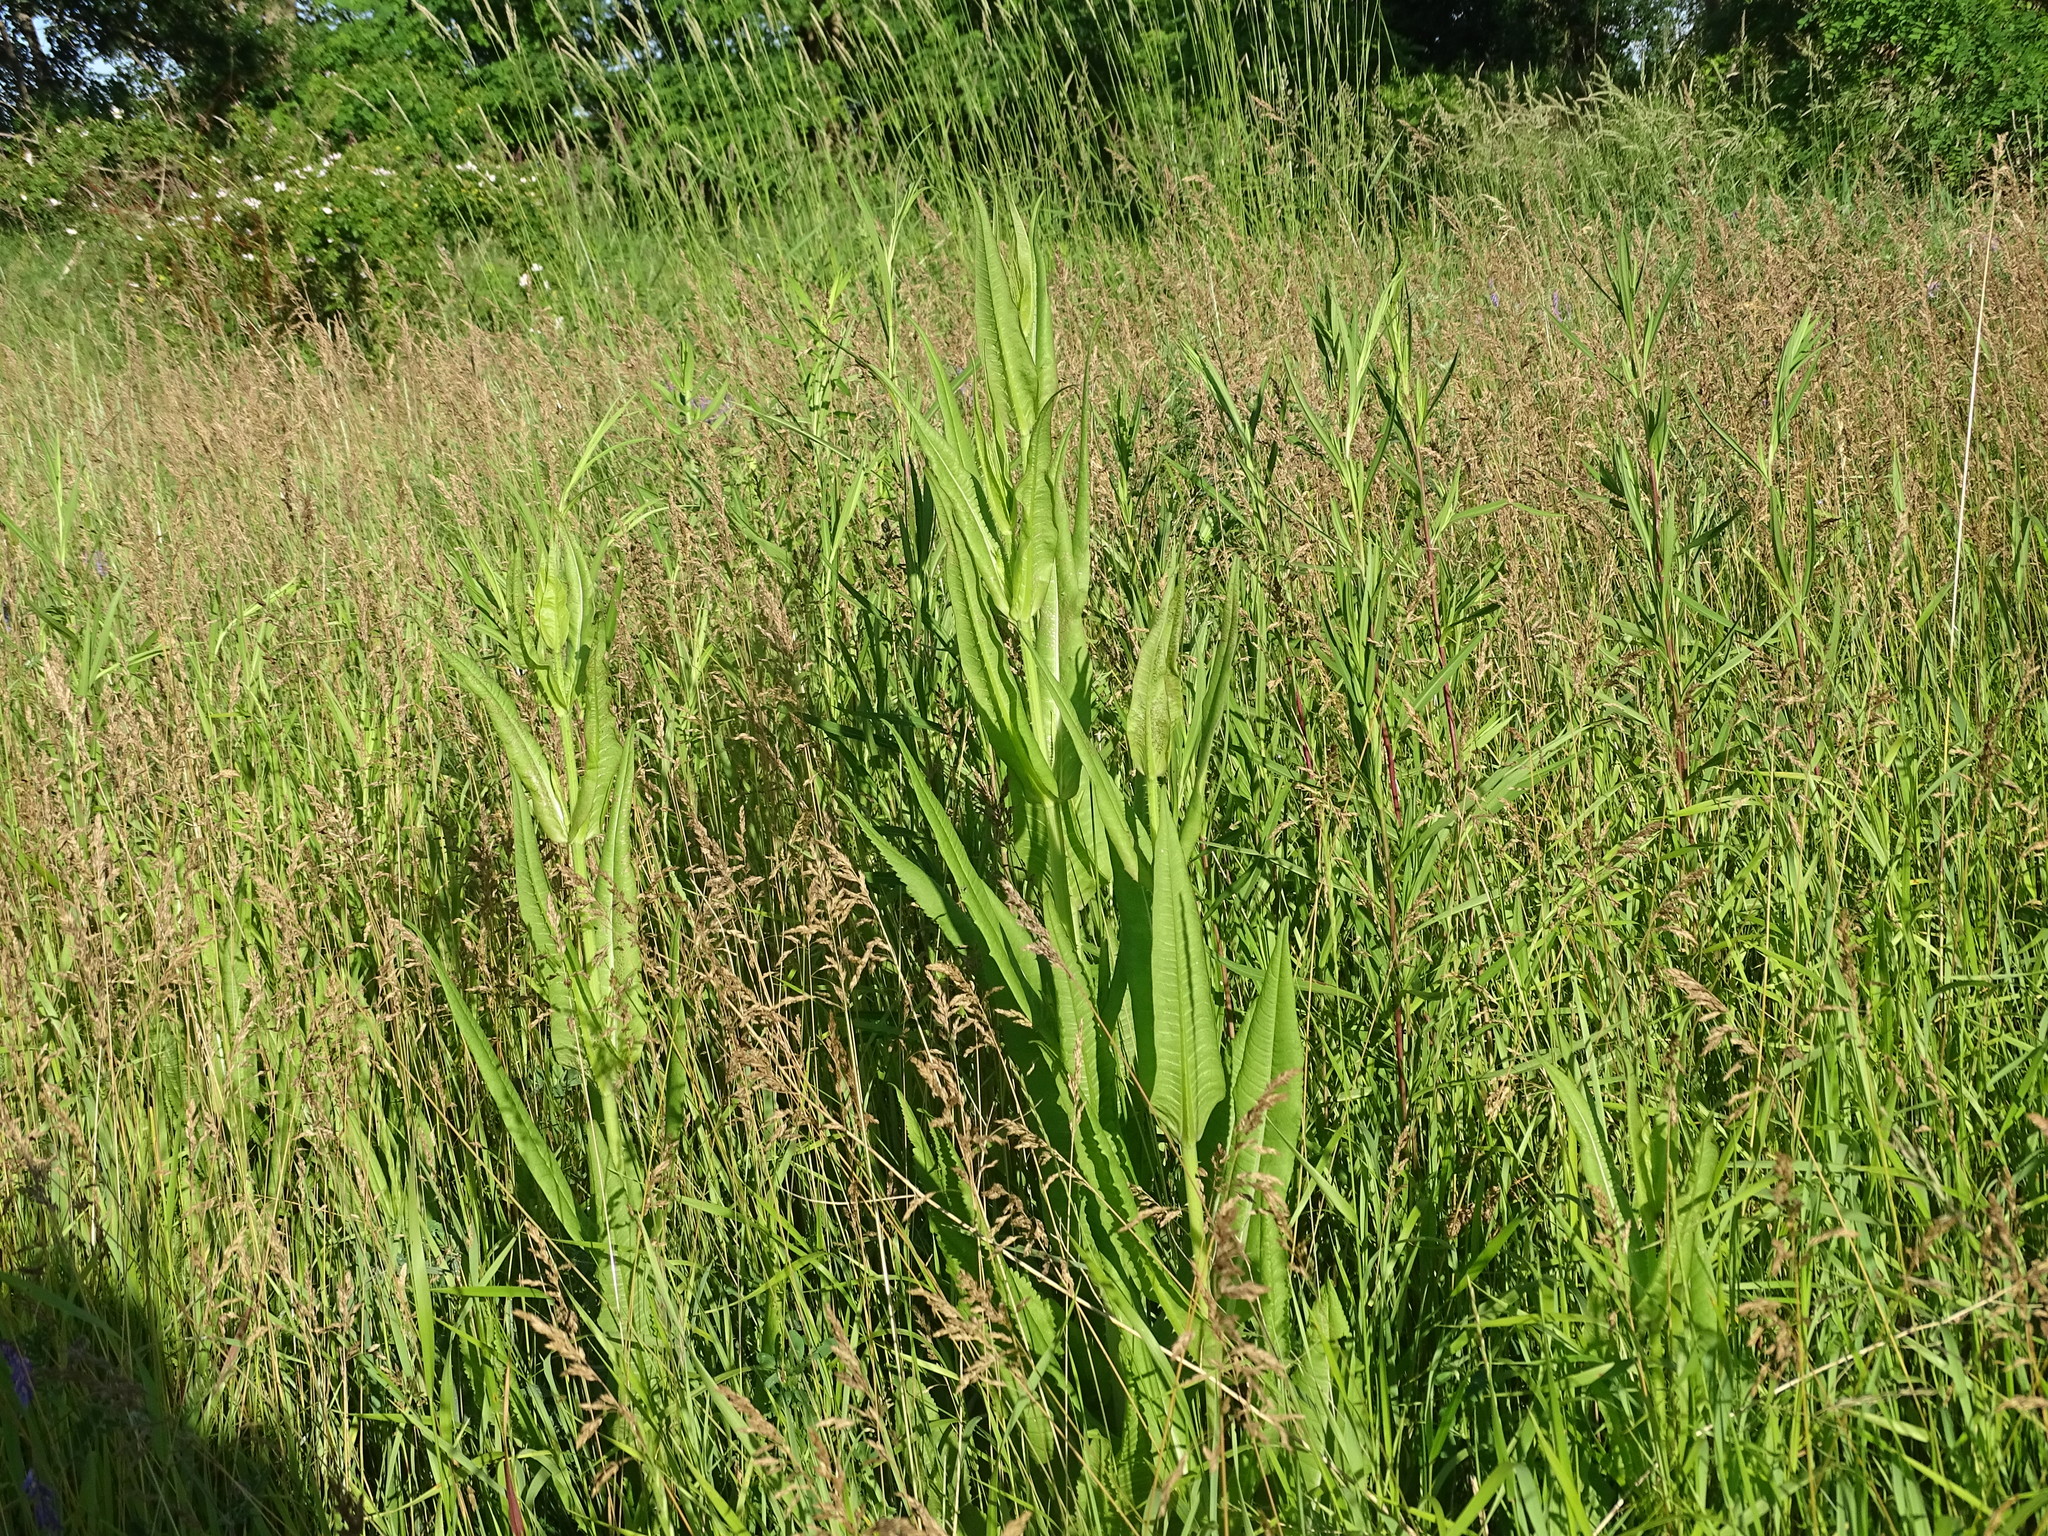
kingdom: Plantae
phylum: Tracheophyta
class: Magnoliopsida
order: Dipsacales
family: Caprifoliaceae
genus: Dipsacus
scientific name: Dipsacus fullonum
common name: Teasel
